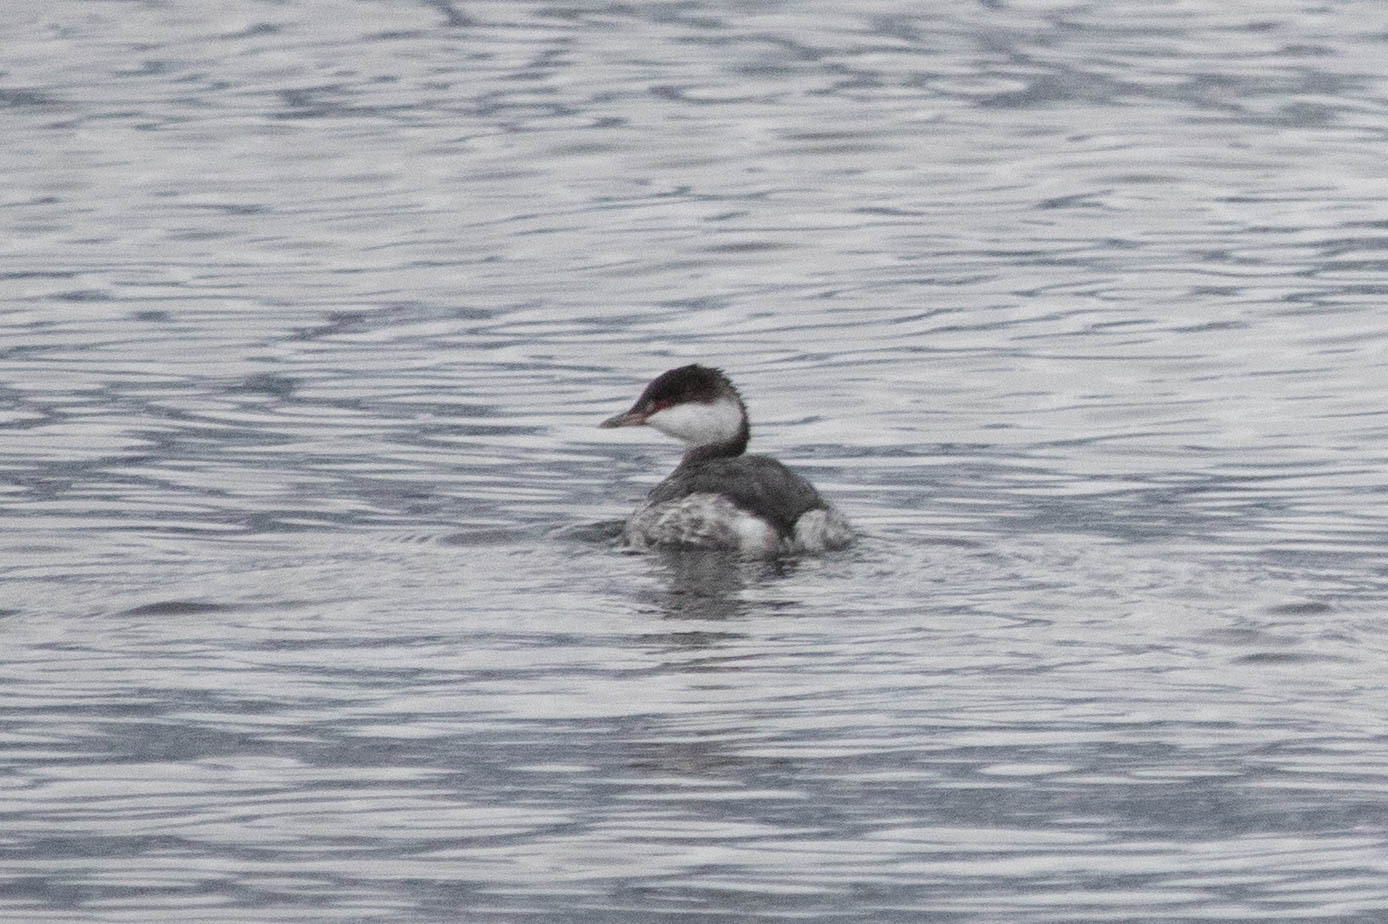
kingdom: Animalia
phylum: Chordata
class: Aves
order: Podicipediformes
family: Podicipedidae
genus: Podiceps
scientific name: Podiceps auritus
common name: Horned grebe
